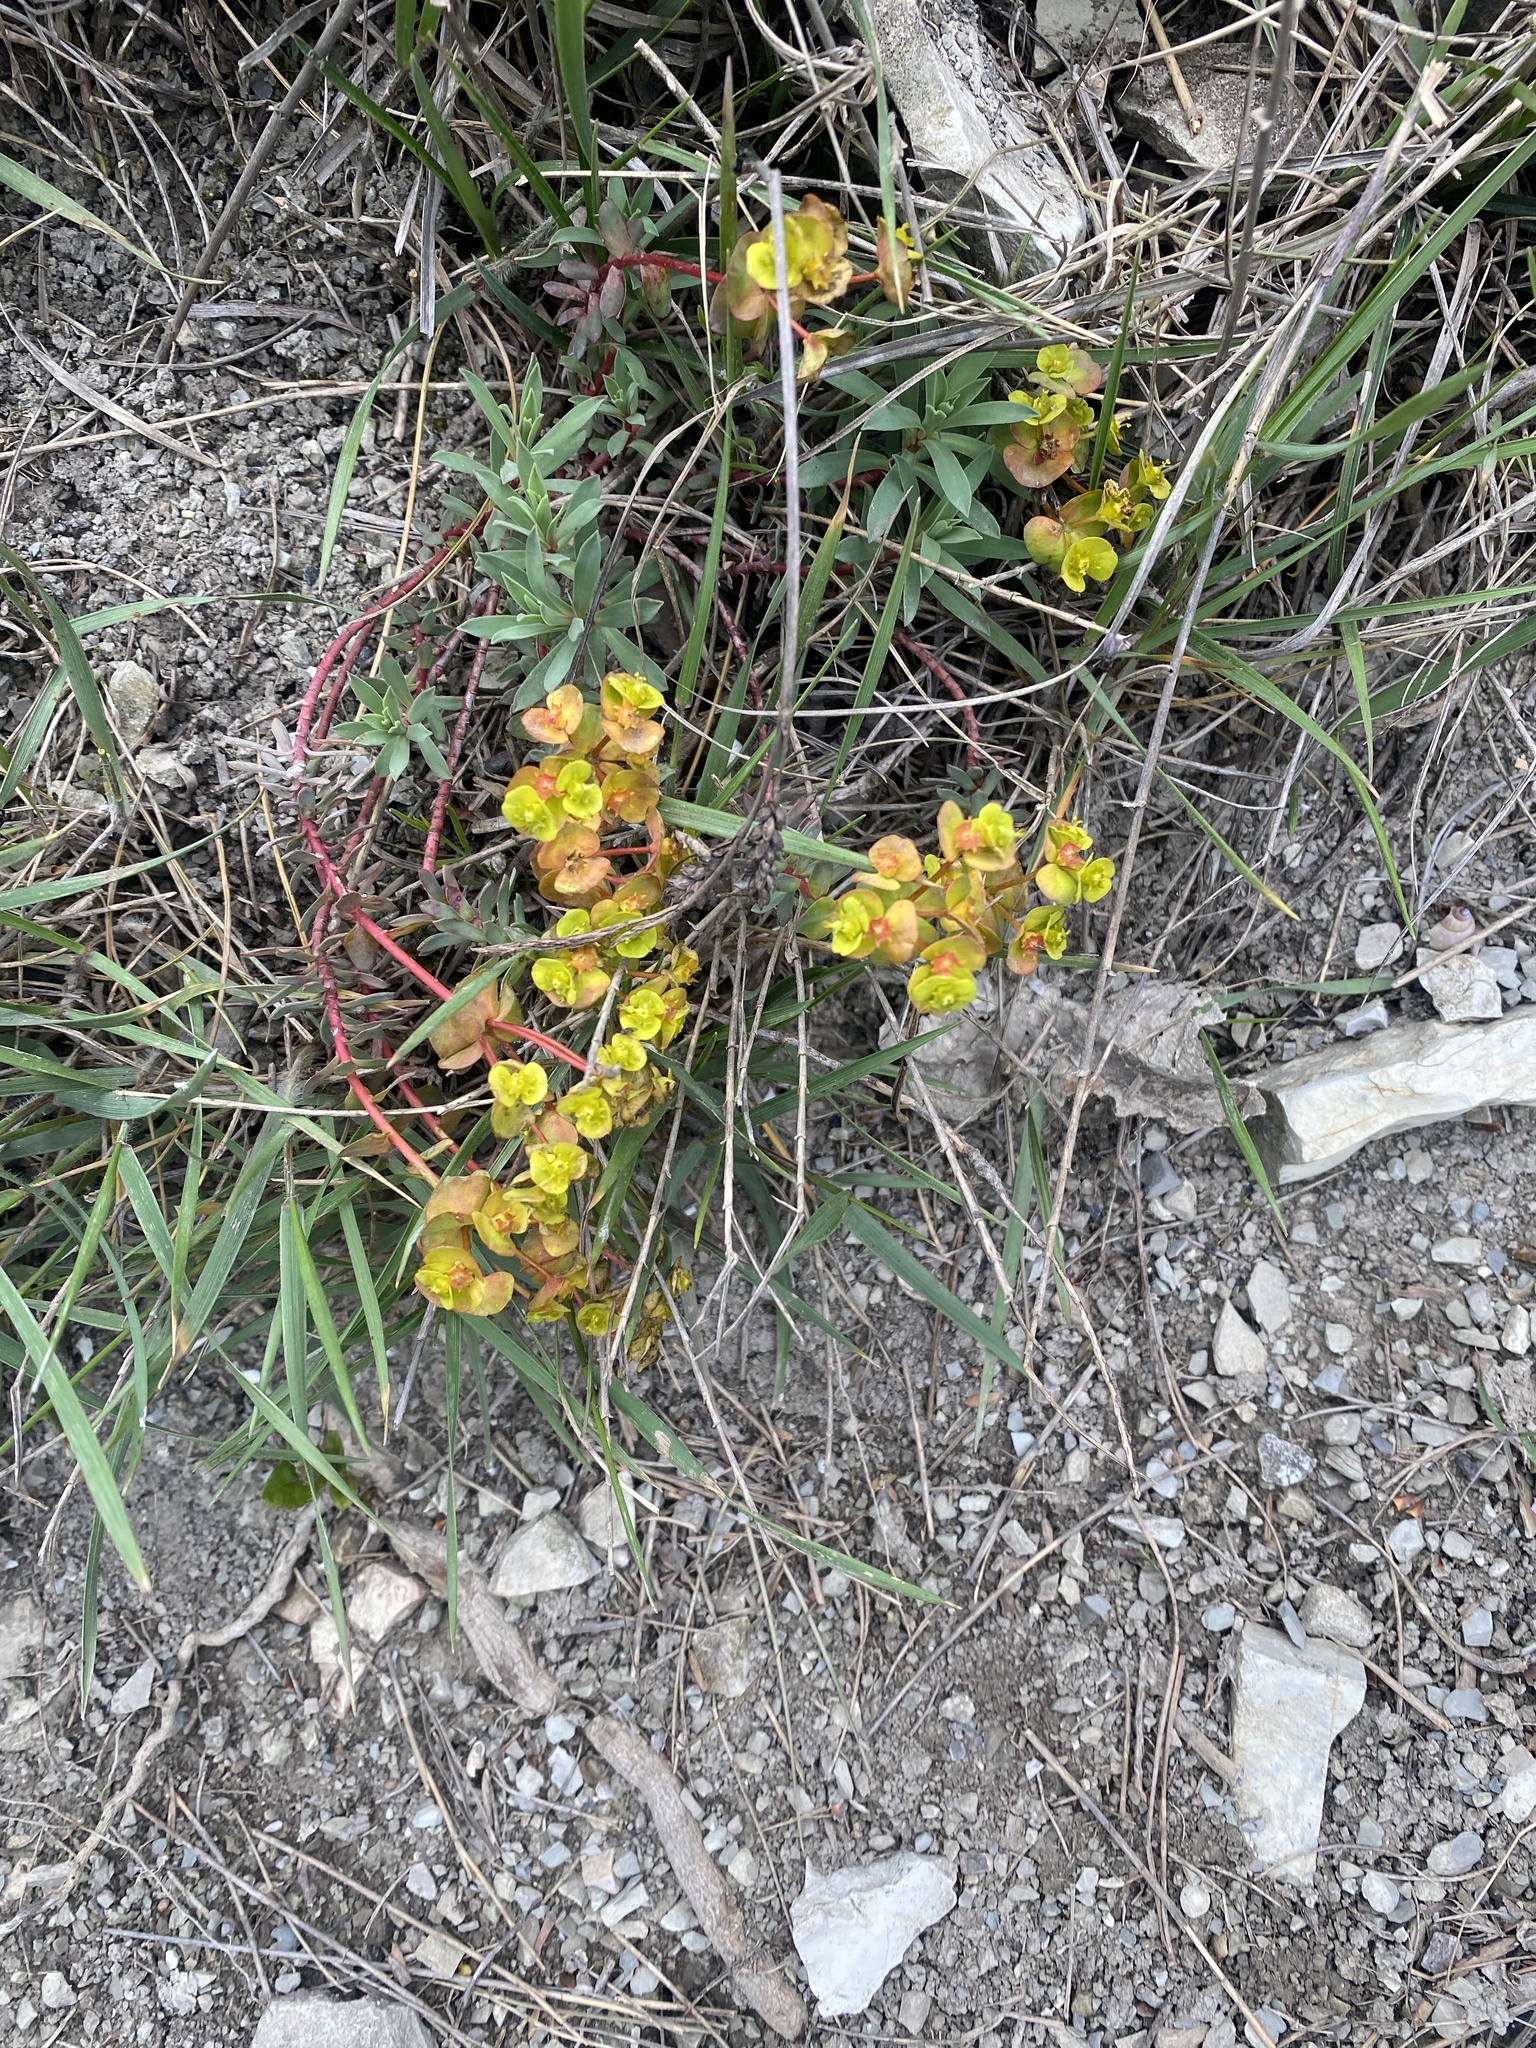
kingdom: Plantae
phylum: Tracheophyta
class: Magnoliopsida
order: Malpighiales
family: Euphorbiaceae
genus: Euphorbia
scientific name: Euphorbia petrophila
